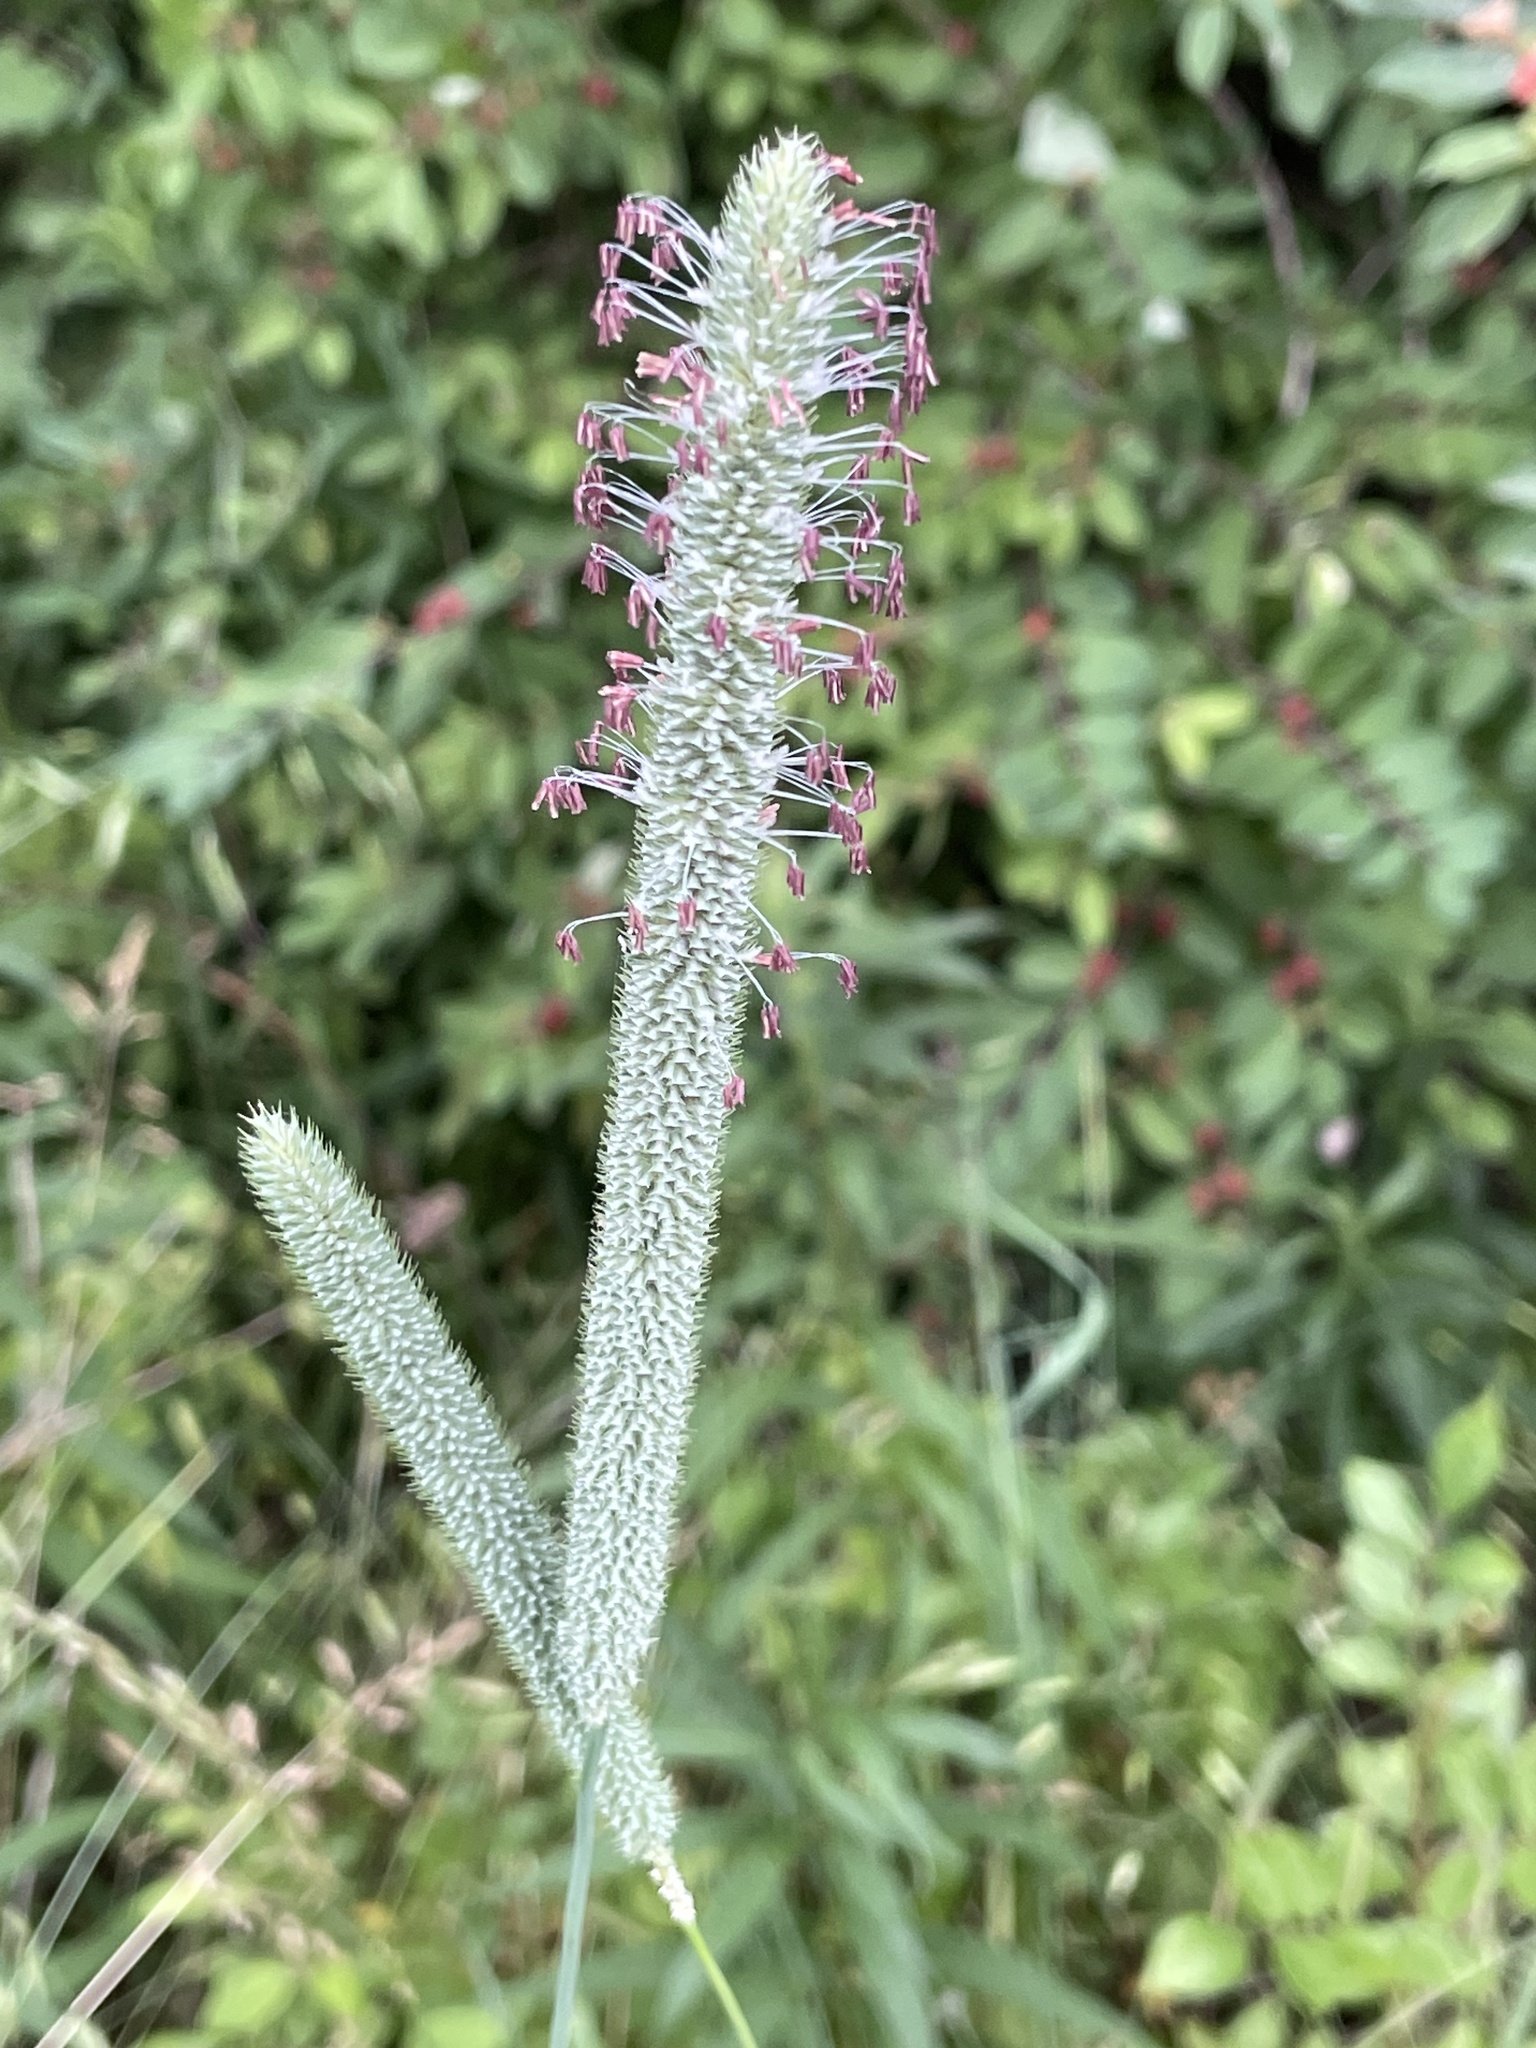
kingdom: Plantae
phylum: Tracheophyta
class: Liliopsida
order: Poales
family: Poaceae
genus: Phleum
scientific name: Phleum pratense
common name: Timothy grass
